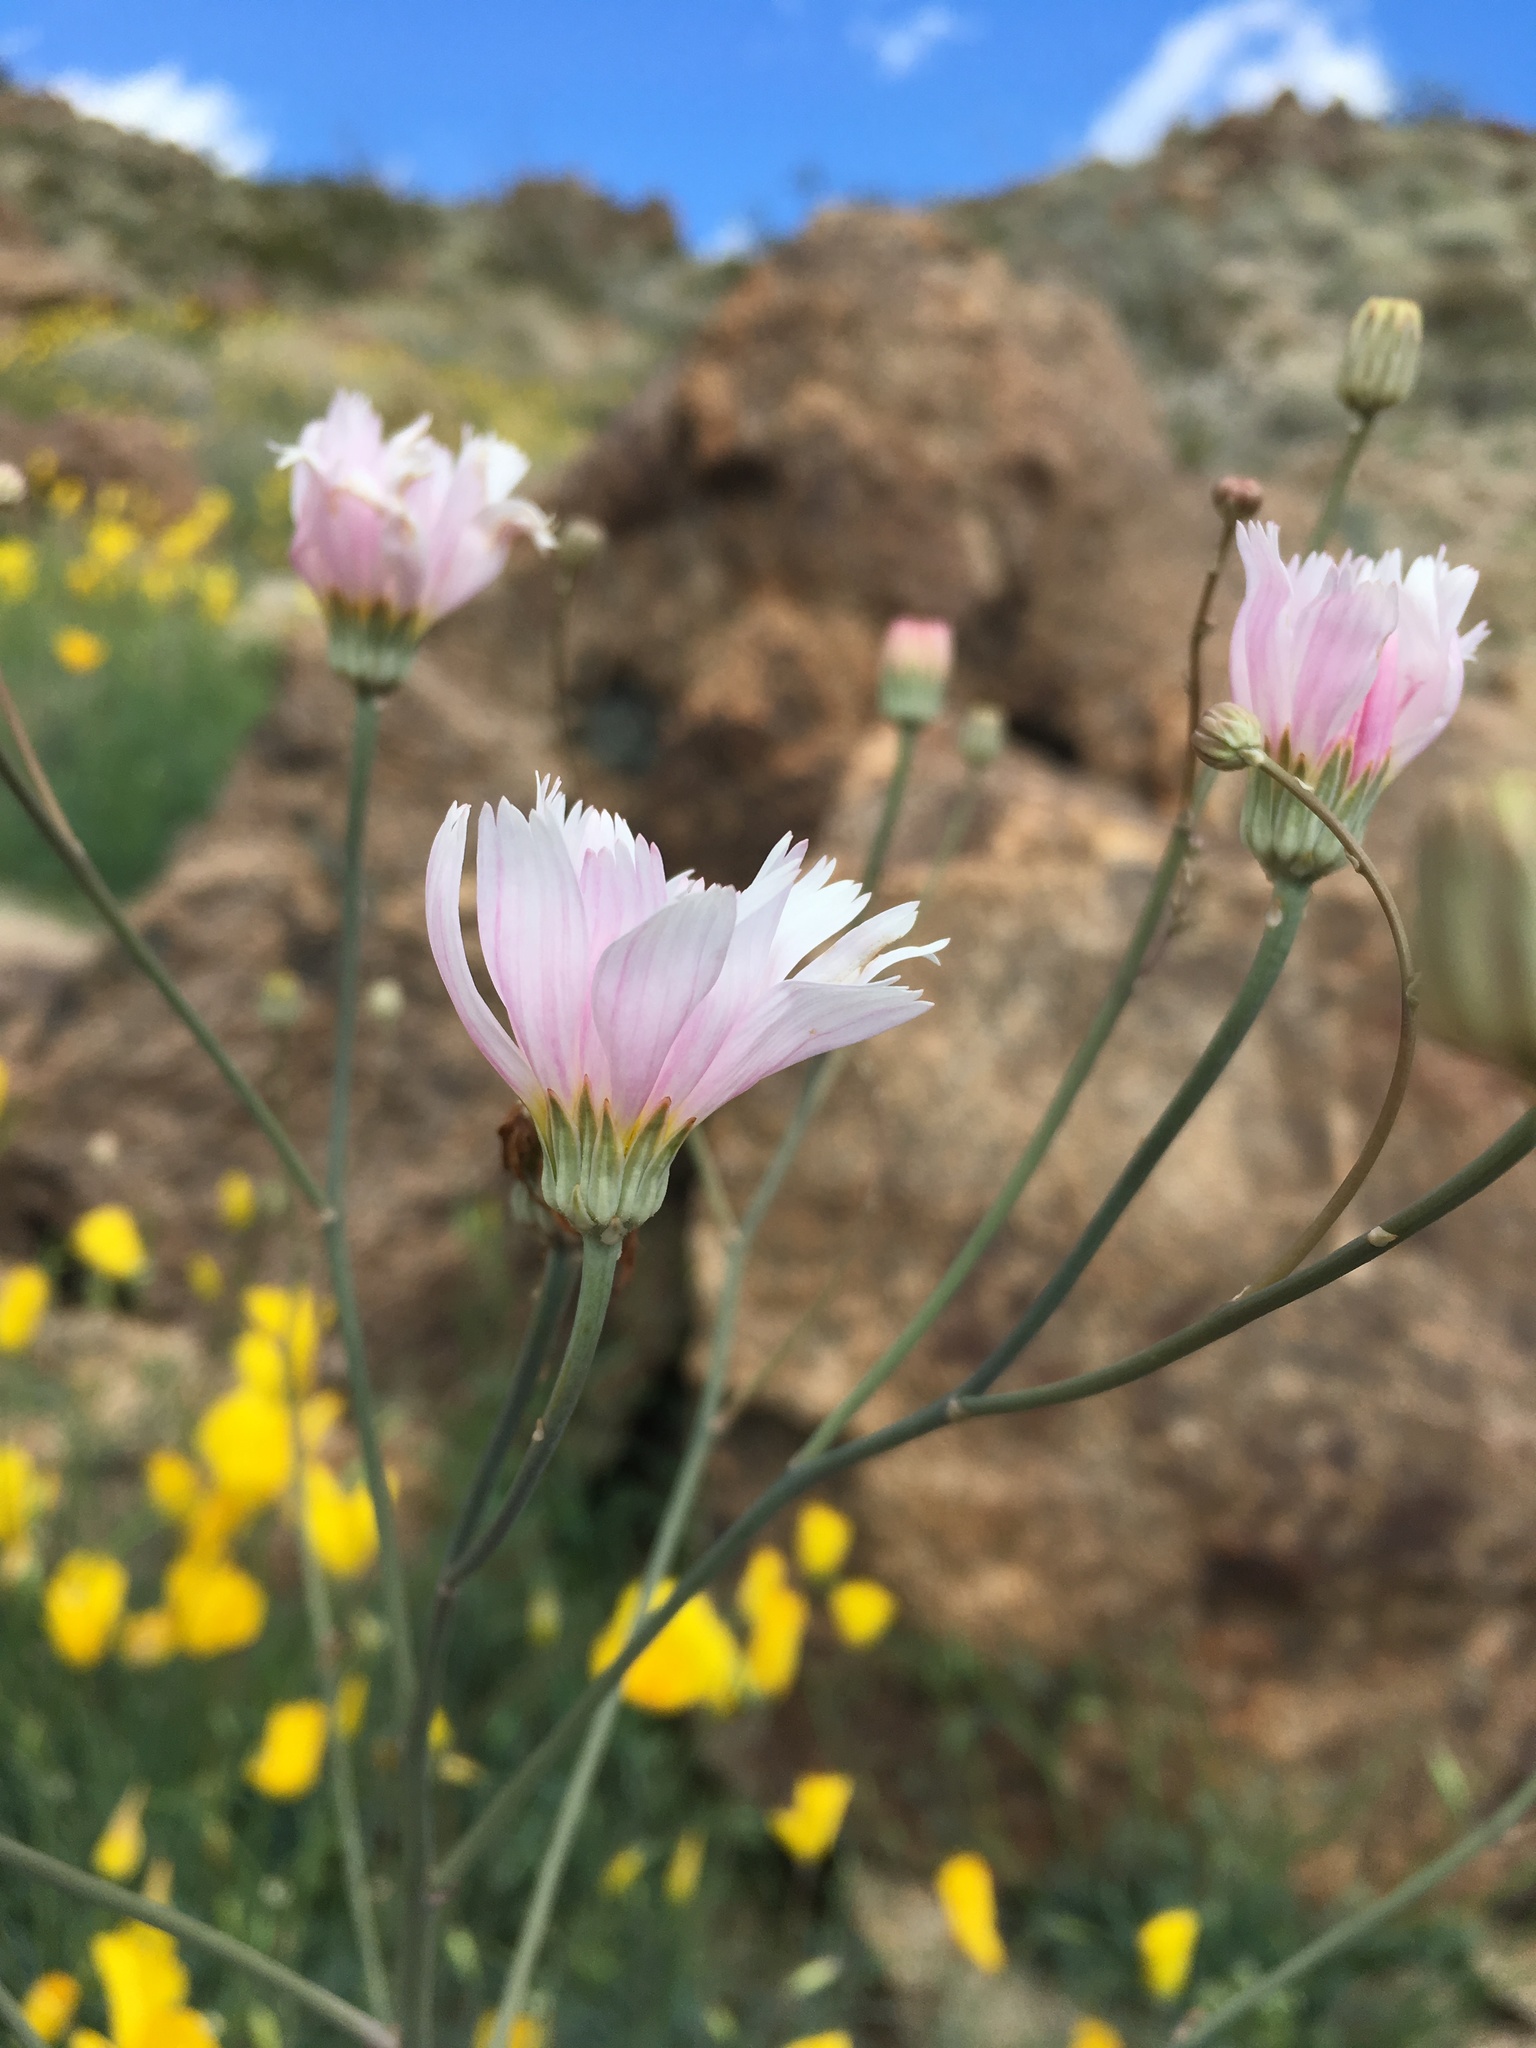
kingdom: Plantae
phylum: Tracheophyta
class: Magnoliopsida
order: Asterales
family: Asteraceae
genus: Atrichoseris
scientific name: Atrichoseris platyphylla
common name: Tobaccoweed
